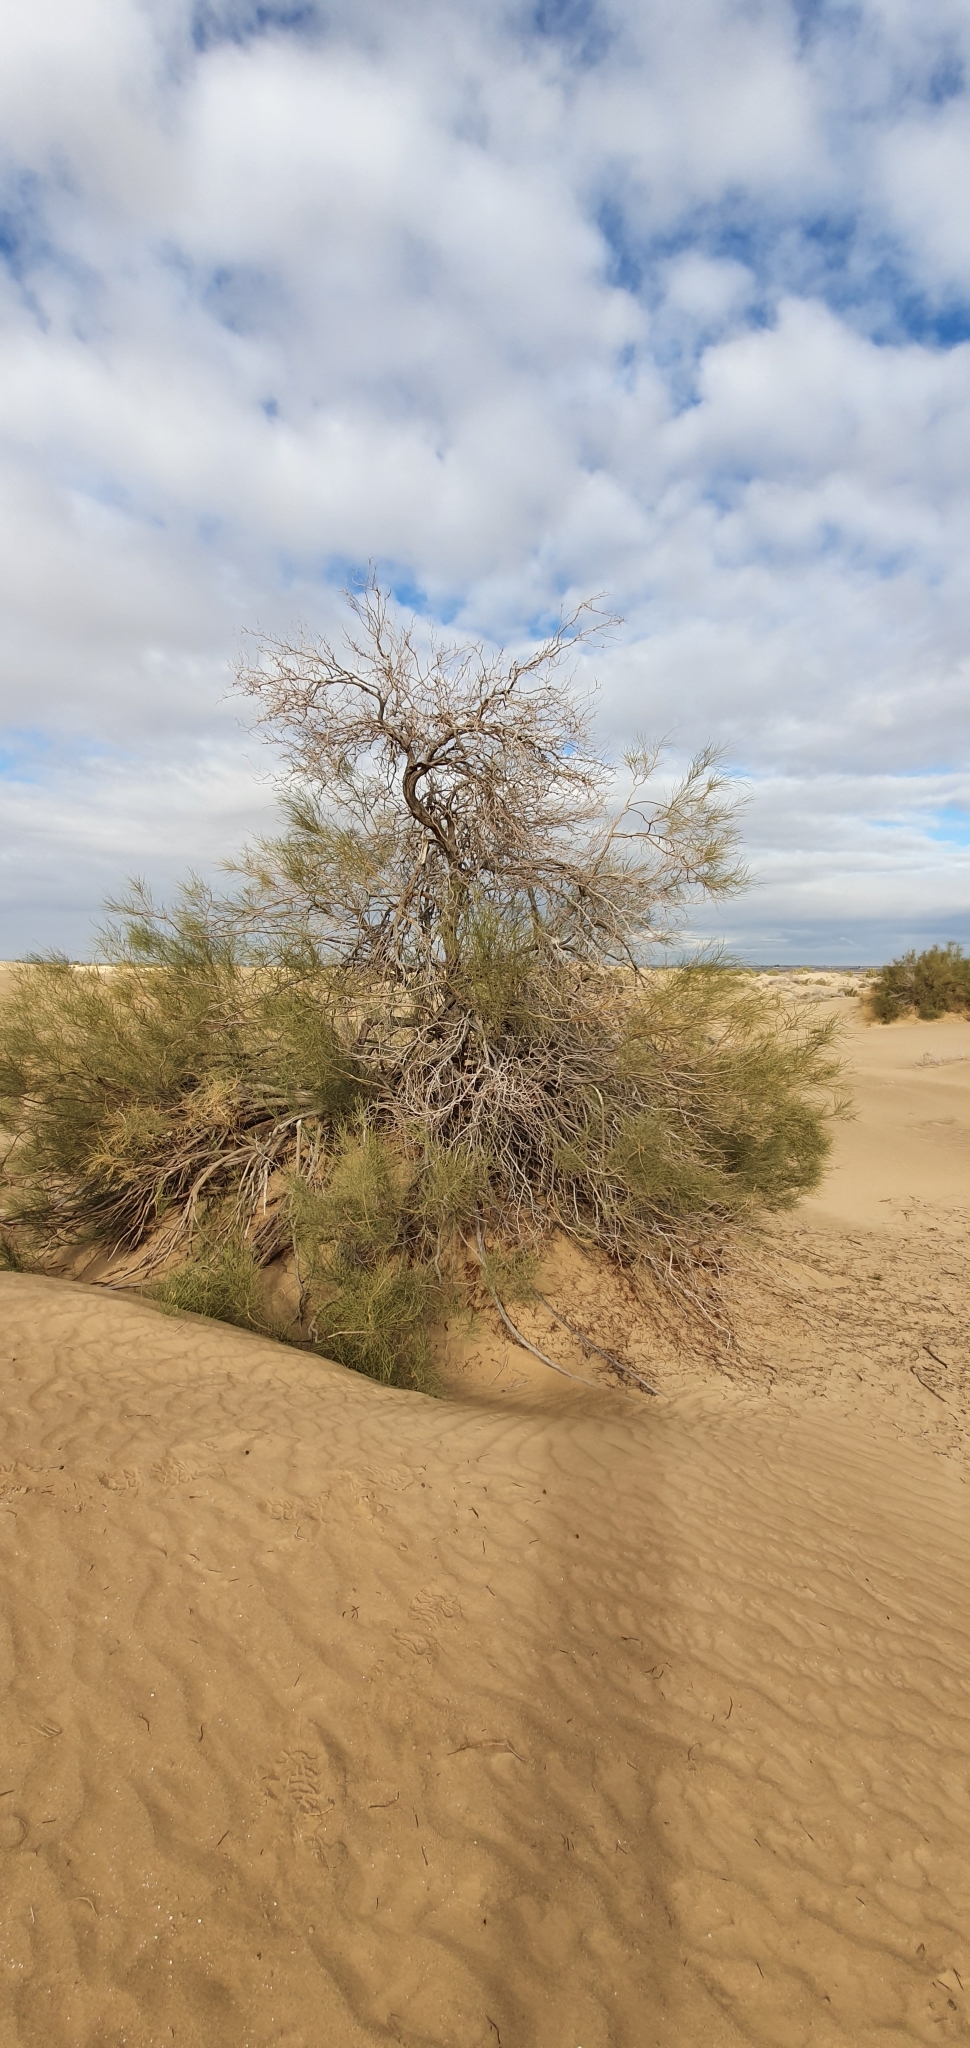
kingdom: Plantae
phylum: Tracheophyta
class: Magnoliopsida
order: Fabales
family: Fabaceae
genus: Retama
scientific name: Retama raetam
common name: Retem
